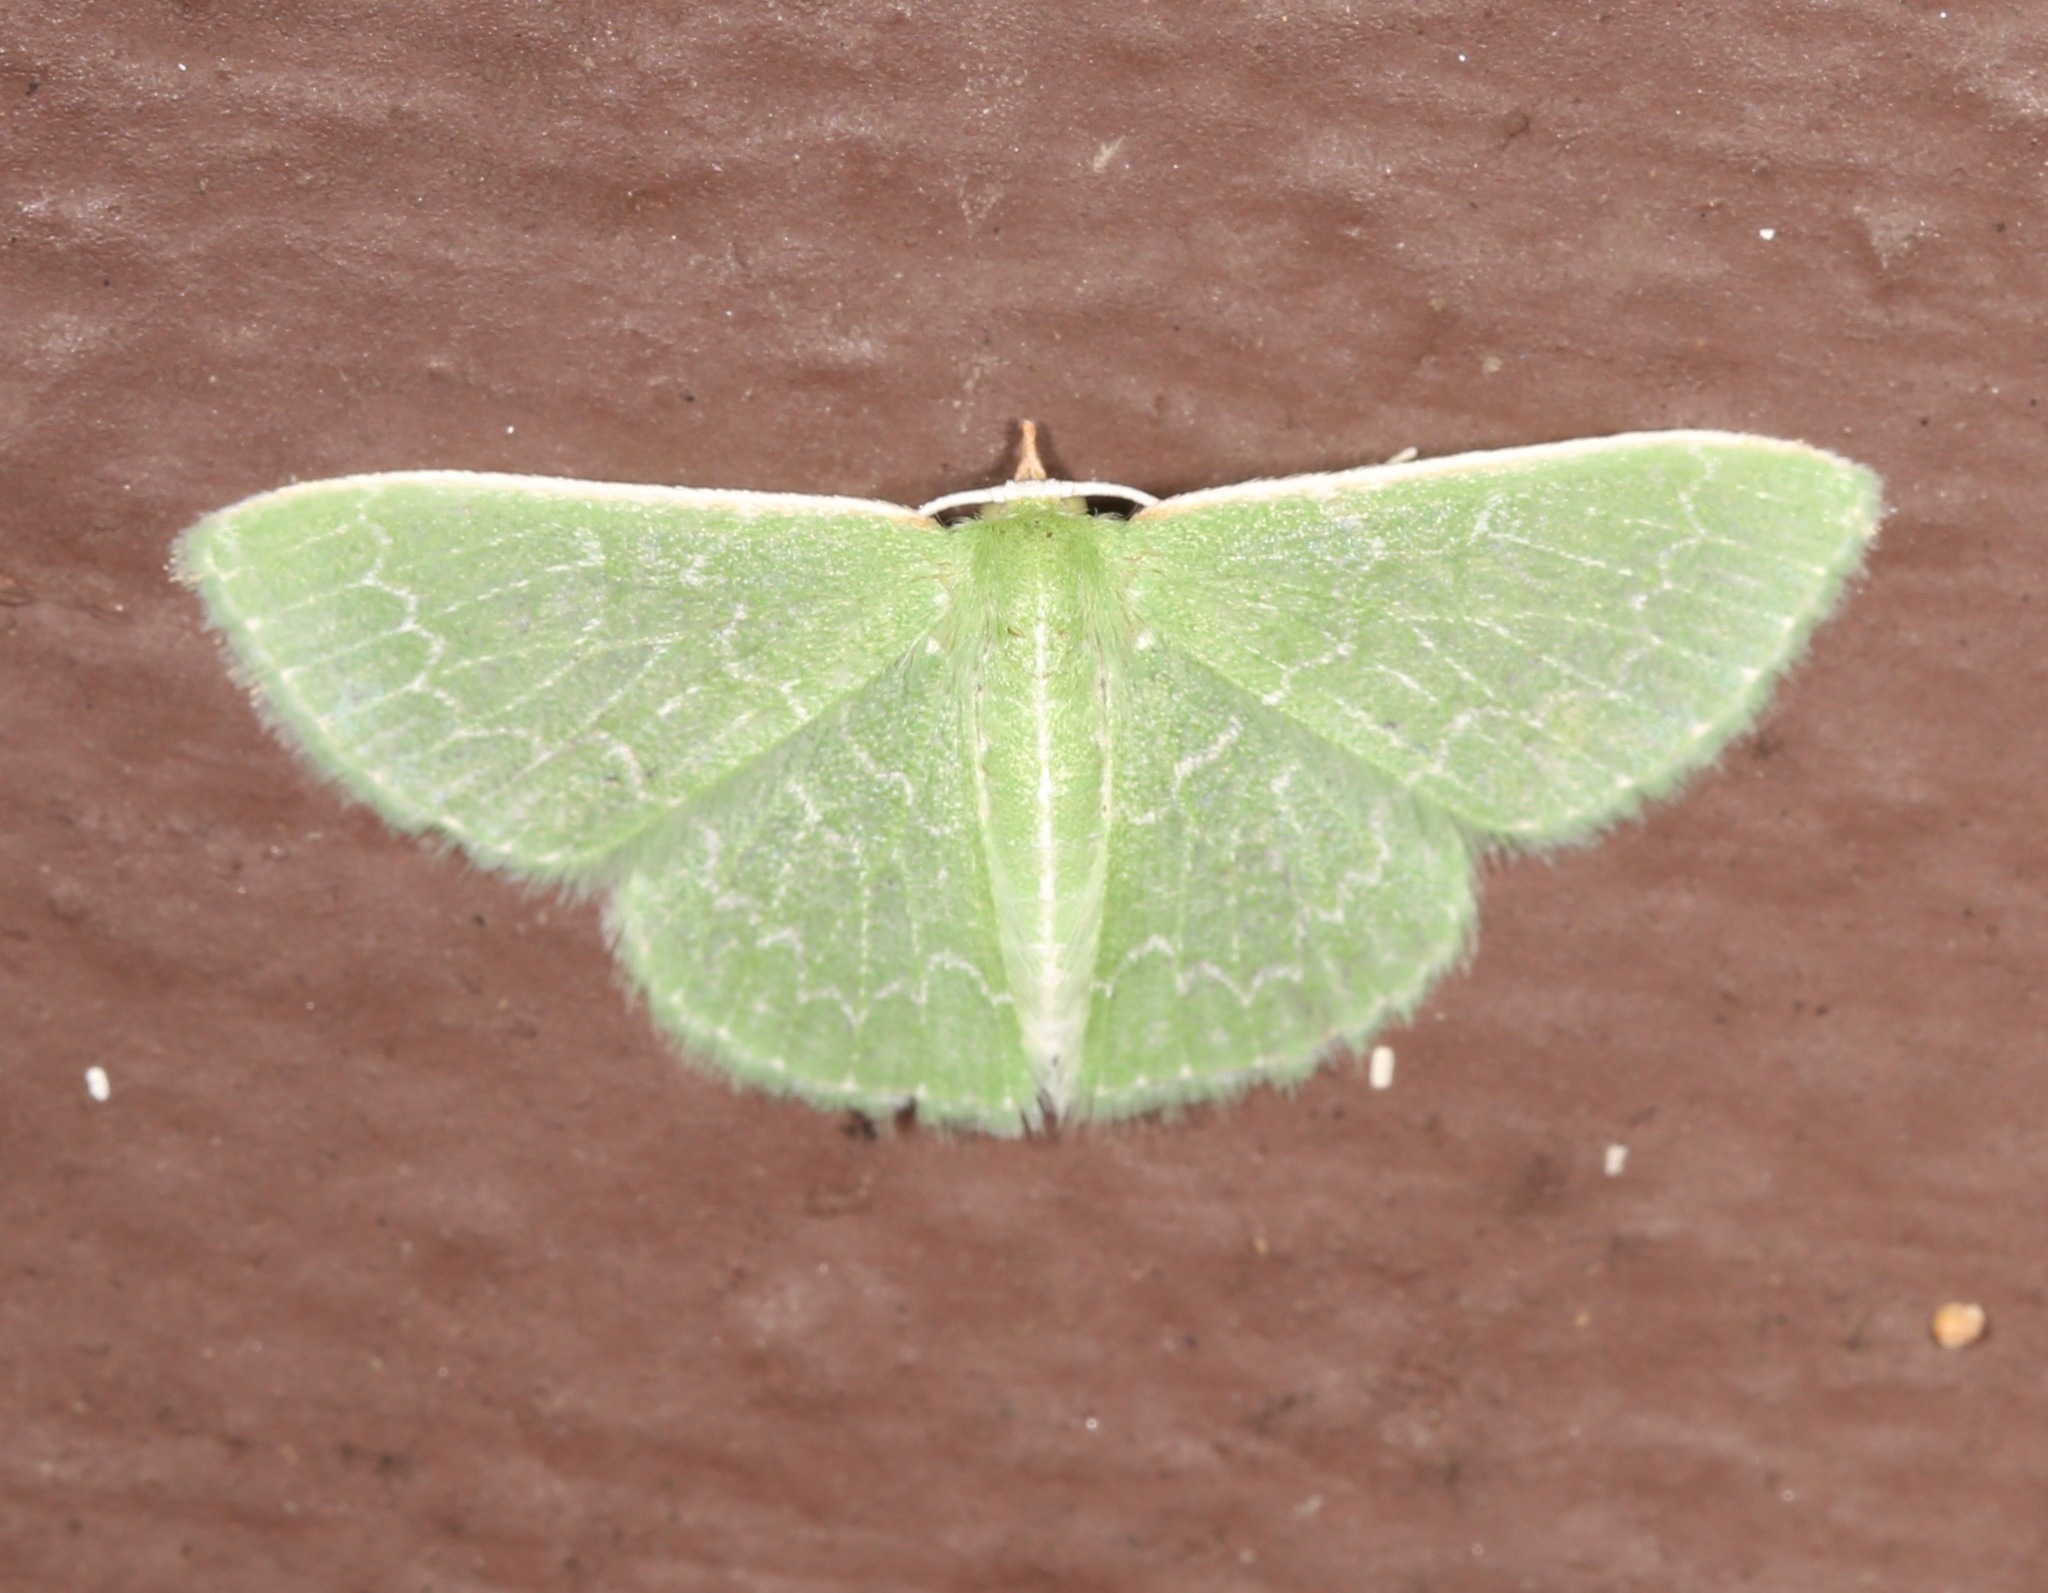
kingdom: Animalia
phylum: Arthropoda
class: Insecta
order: Lepidoptera
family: Geometridae
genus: Synchlora
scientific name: Synchlora frondaria
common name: Southern emerald
